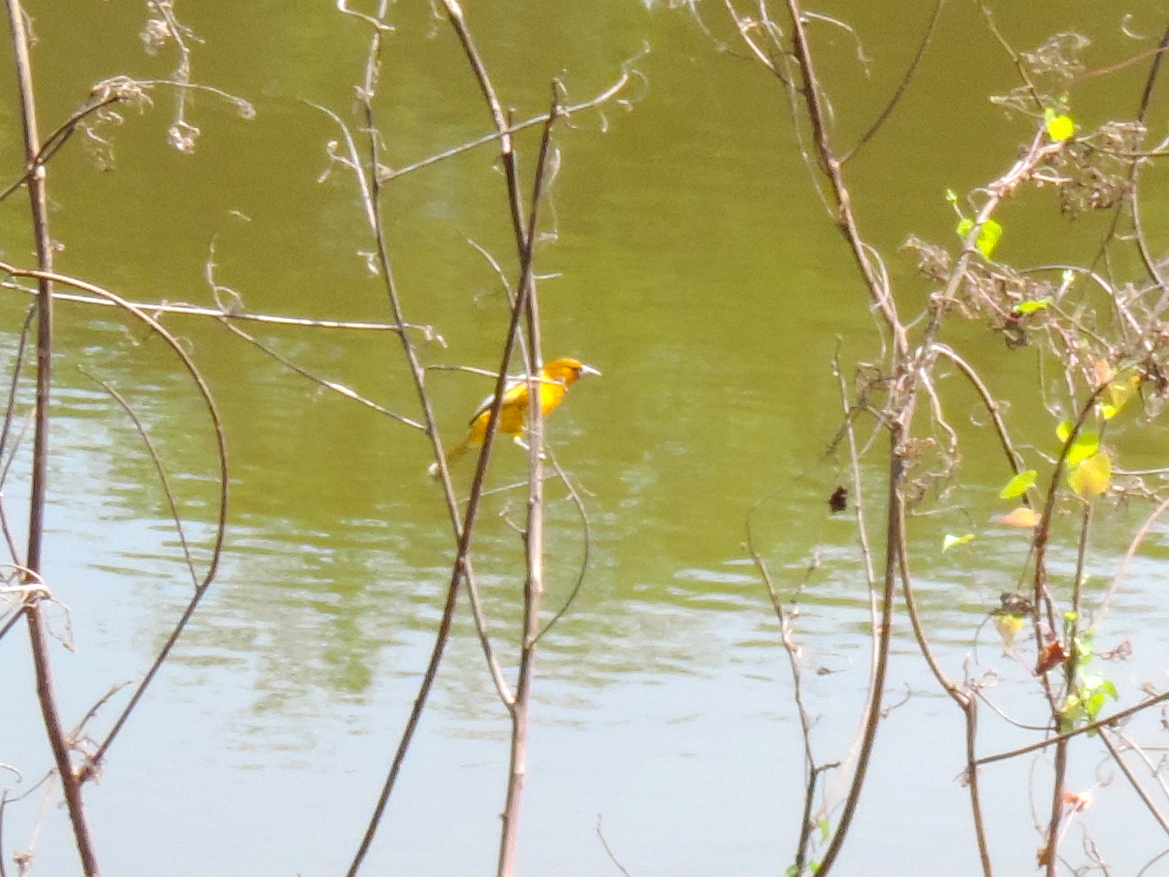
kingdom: Animalia
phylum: Chordata
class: Aves
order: Passeriformes
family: Icteridae
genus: Icterus
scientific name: Icterus pustulatus
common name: Streak-backed oriole
